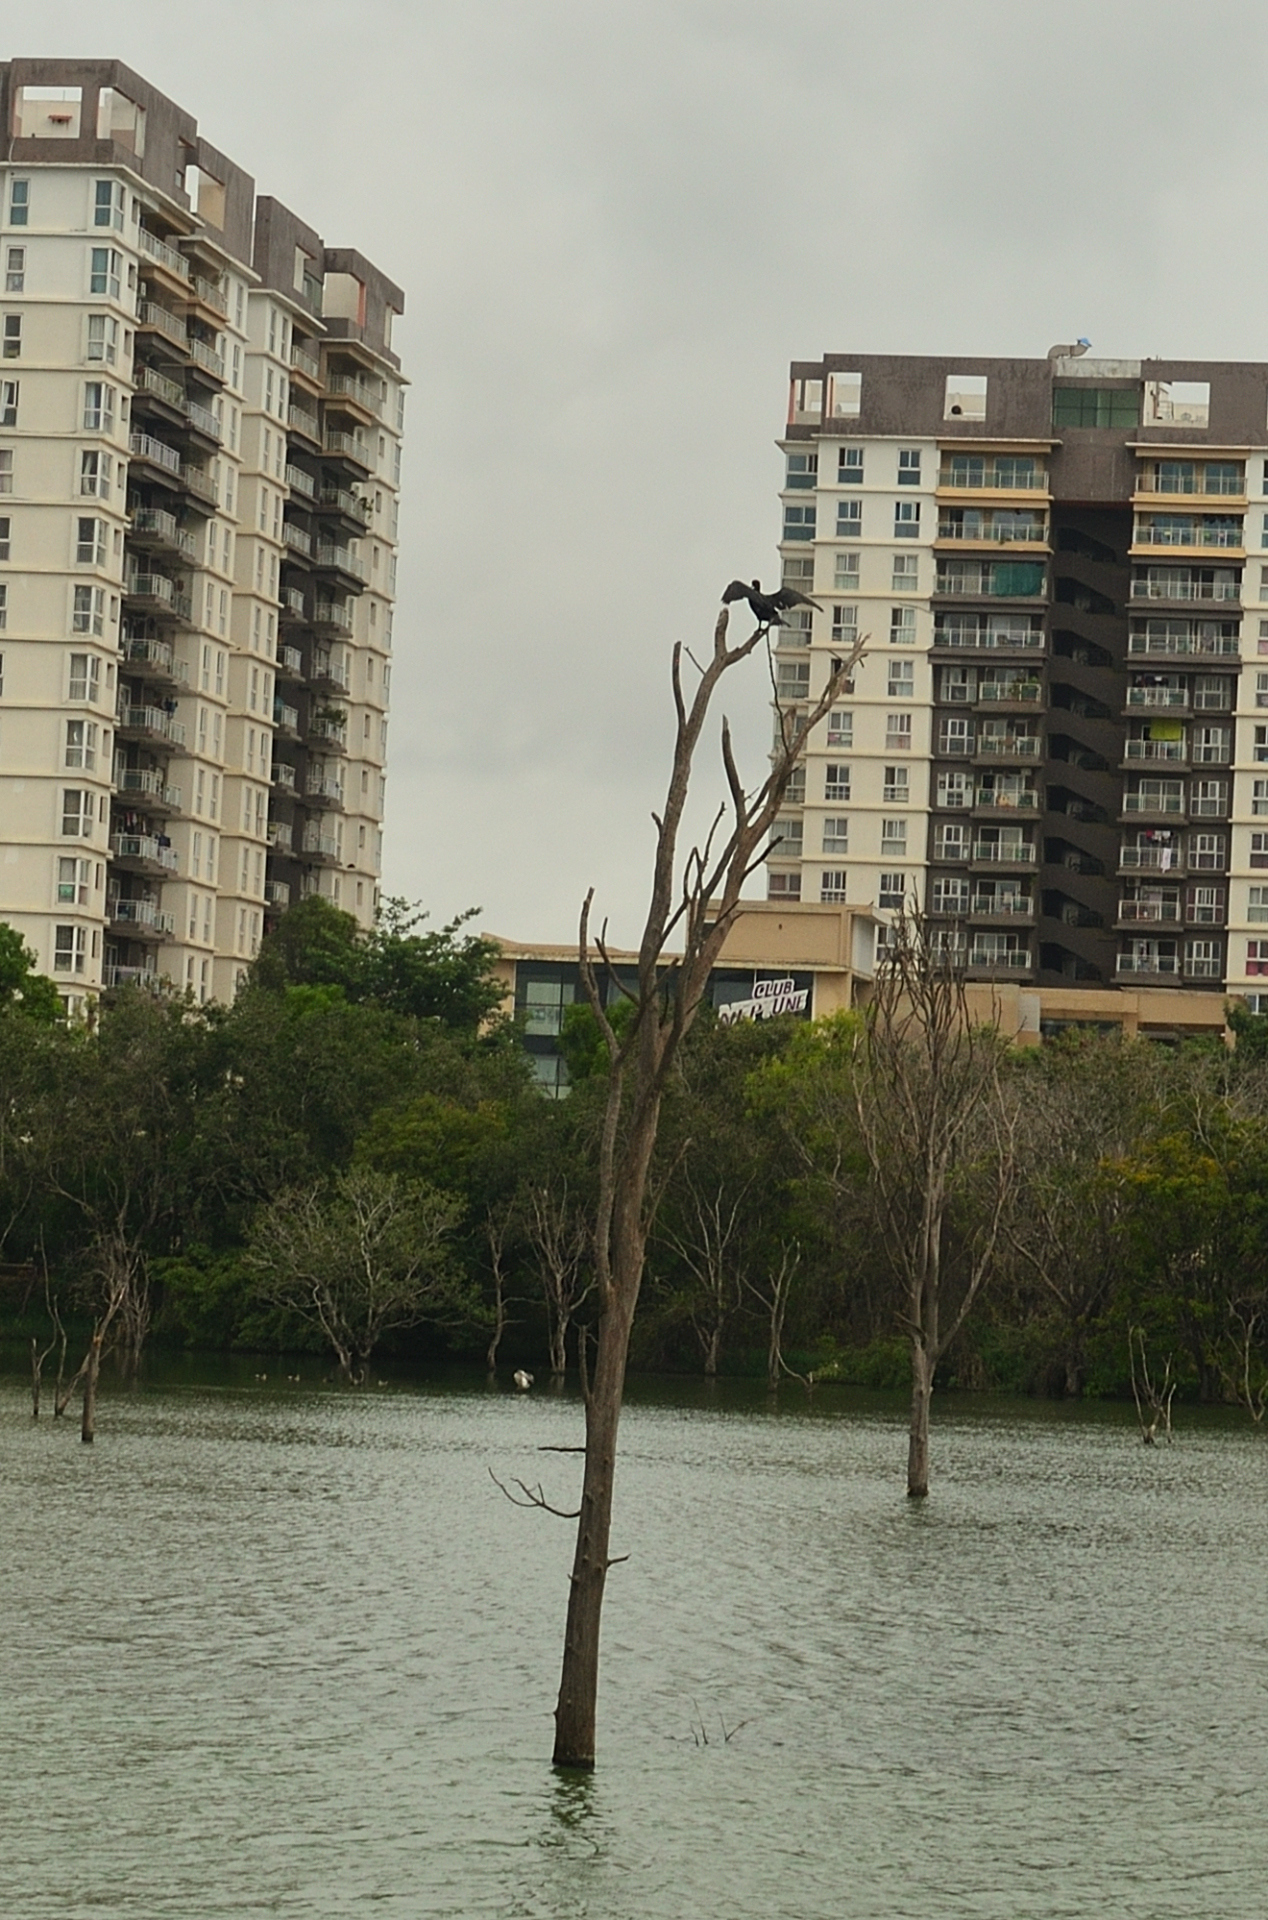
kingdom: Animalia
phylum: Chordata
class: Aves
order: Suliformes
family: Phalacrocoracidae
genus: Microcarbo
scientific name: Microcarbo niger
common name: Little cormorant
